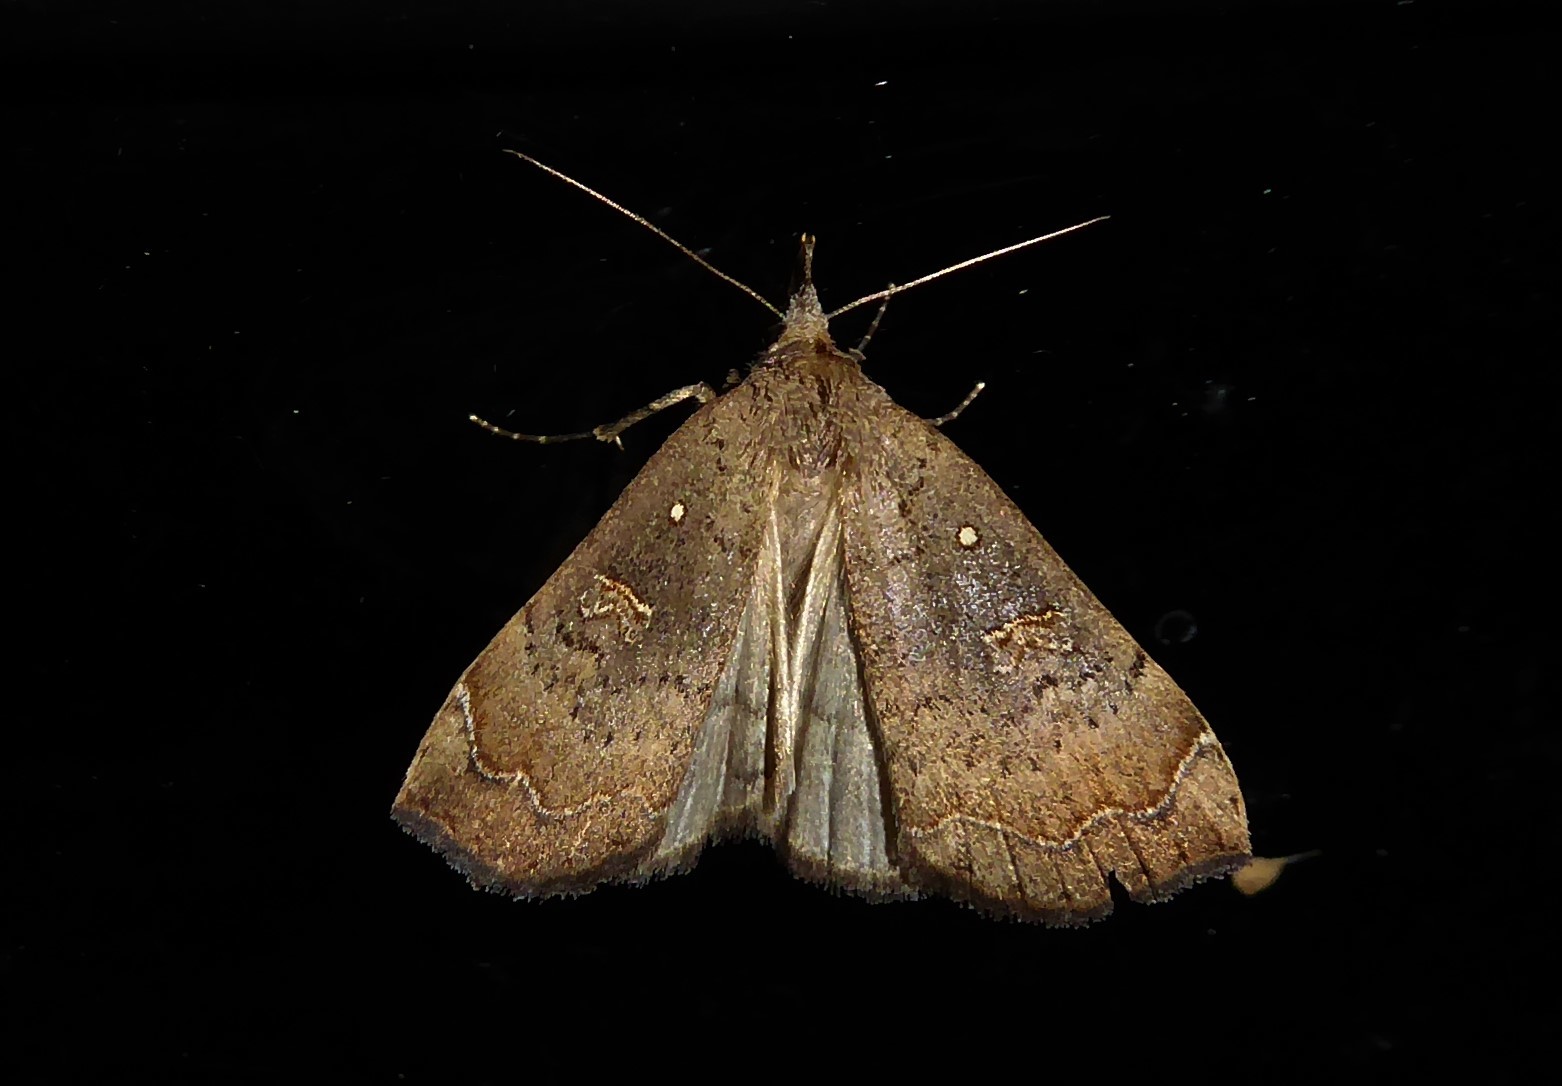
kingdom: Animalia
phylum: Arthropoda
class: Insecta
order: Lepidoptera
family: Erebidae
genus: Rhapsa
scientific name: Rhapsa scotosialis
